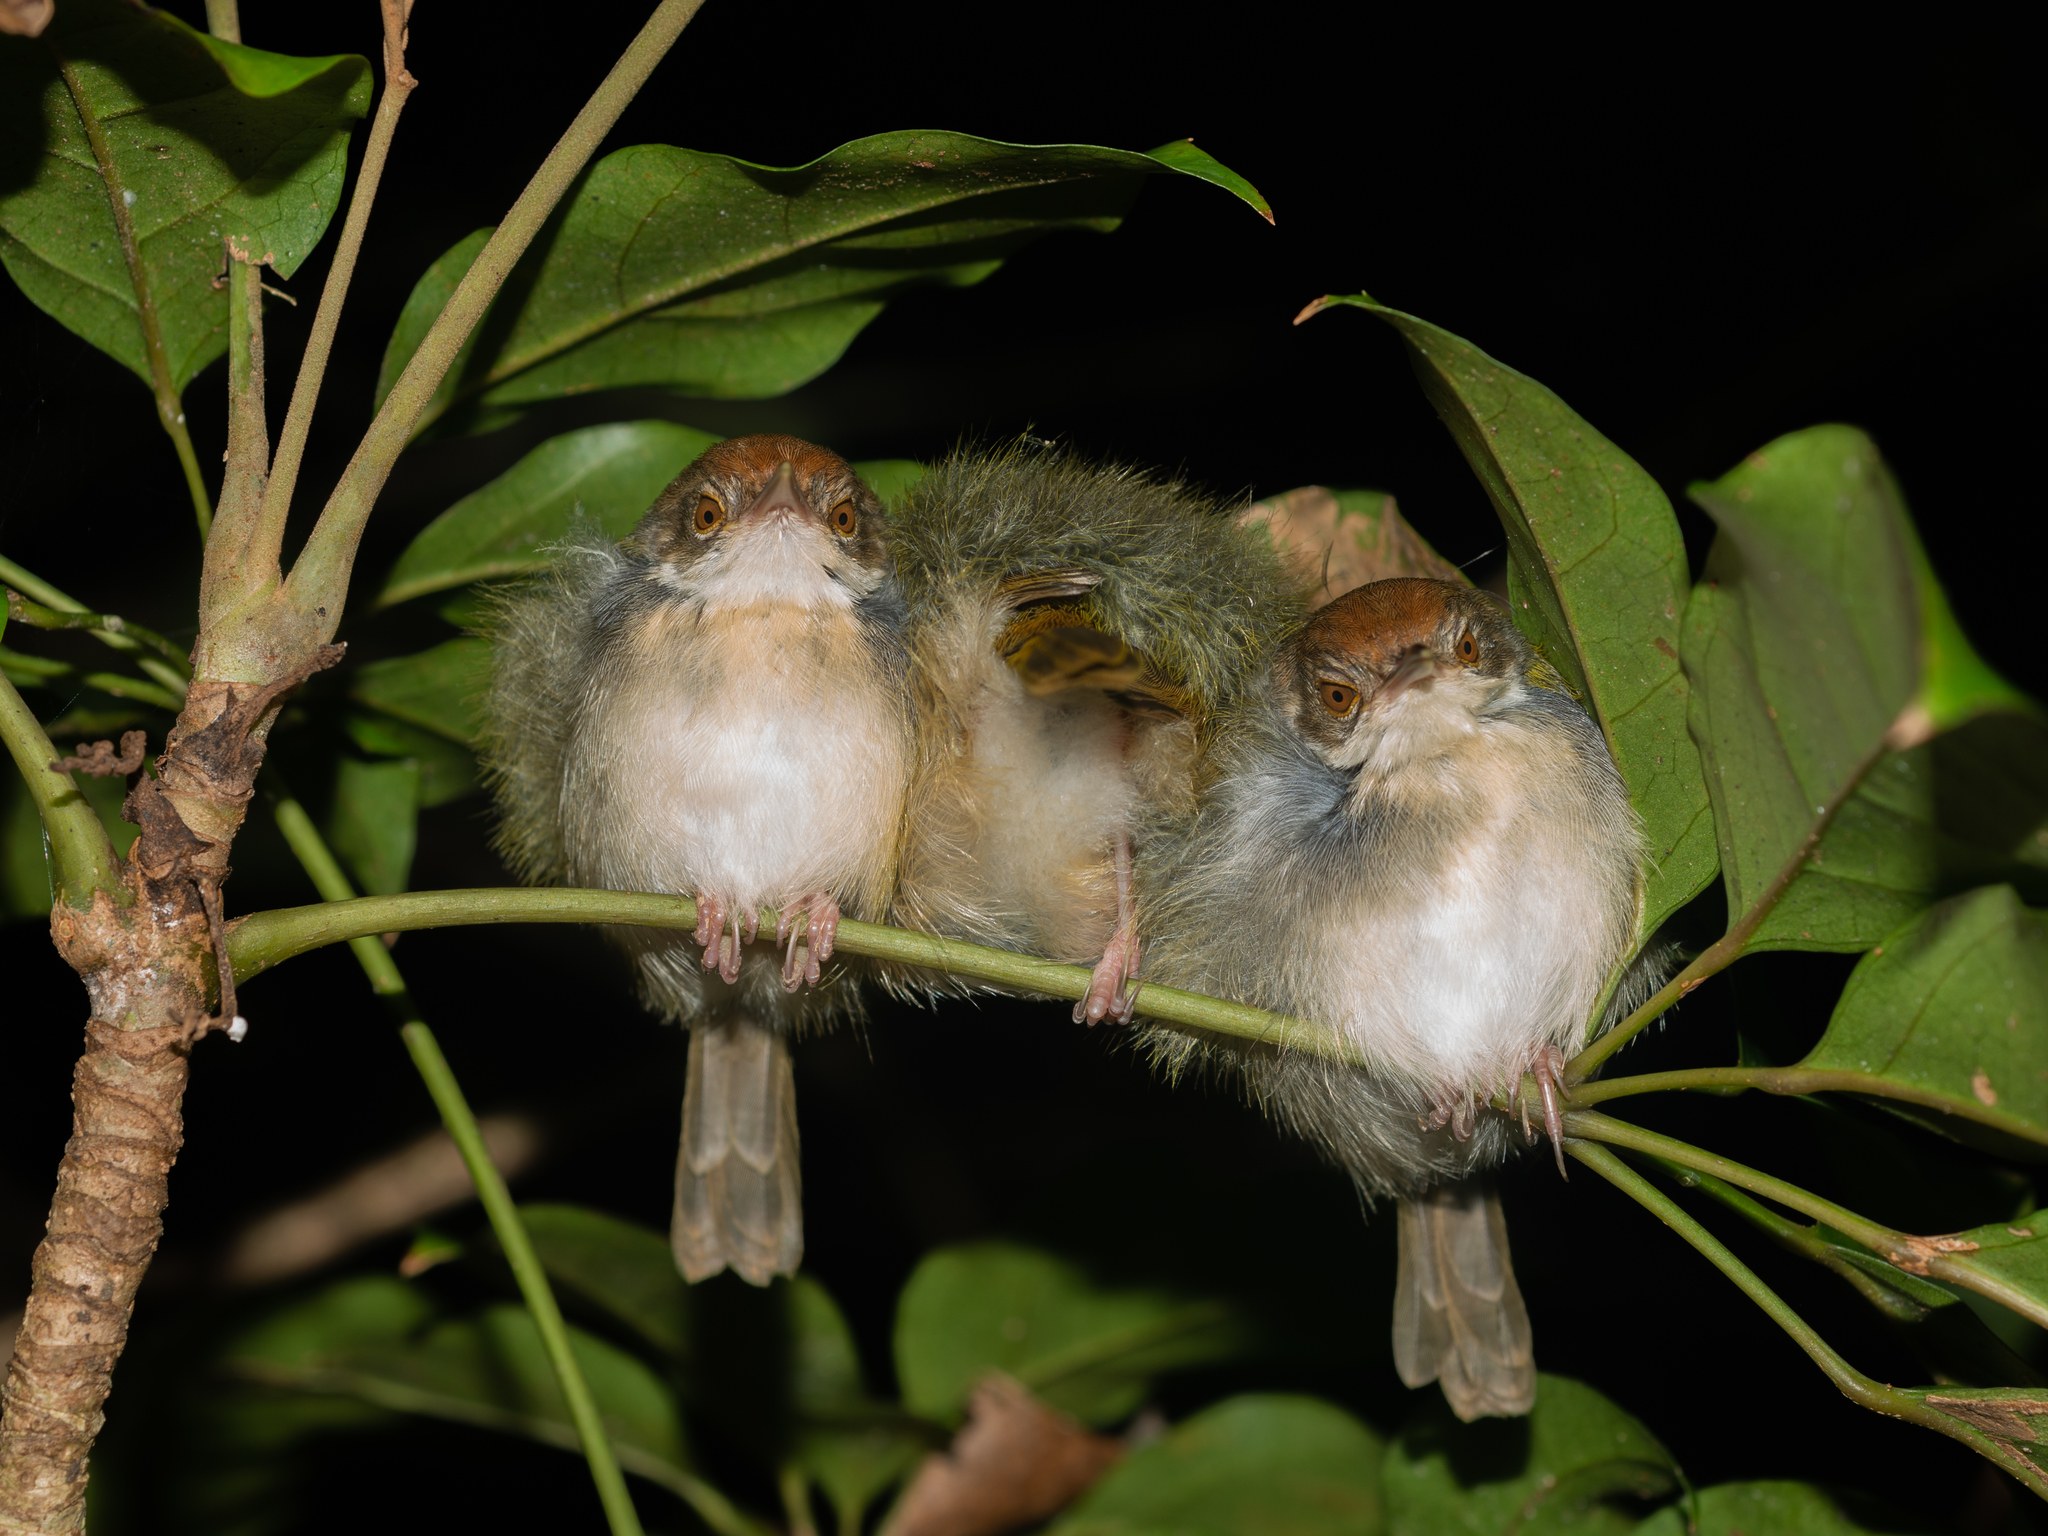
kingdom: Animalia
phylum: Chordata
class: Aves
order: Passeriformes
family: Cisticolidae
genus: Orthotomus
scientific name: Orthotomus sutorius
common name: Common tailorbird
